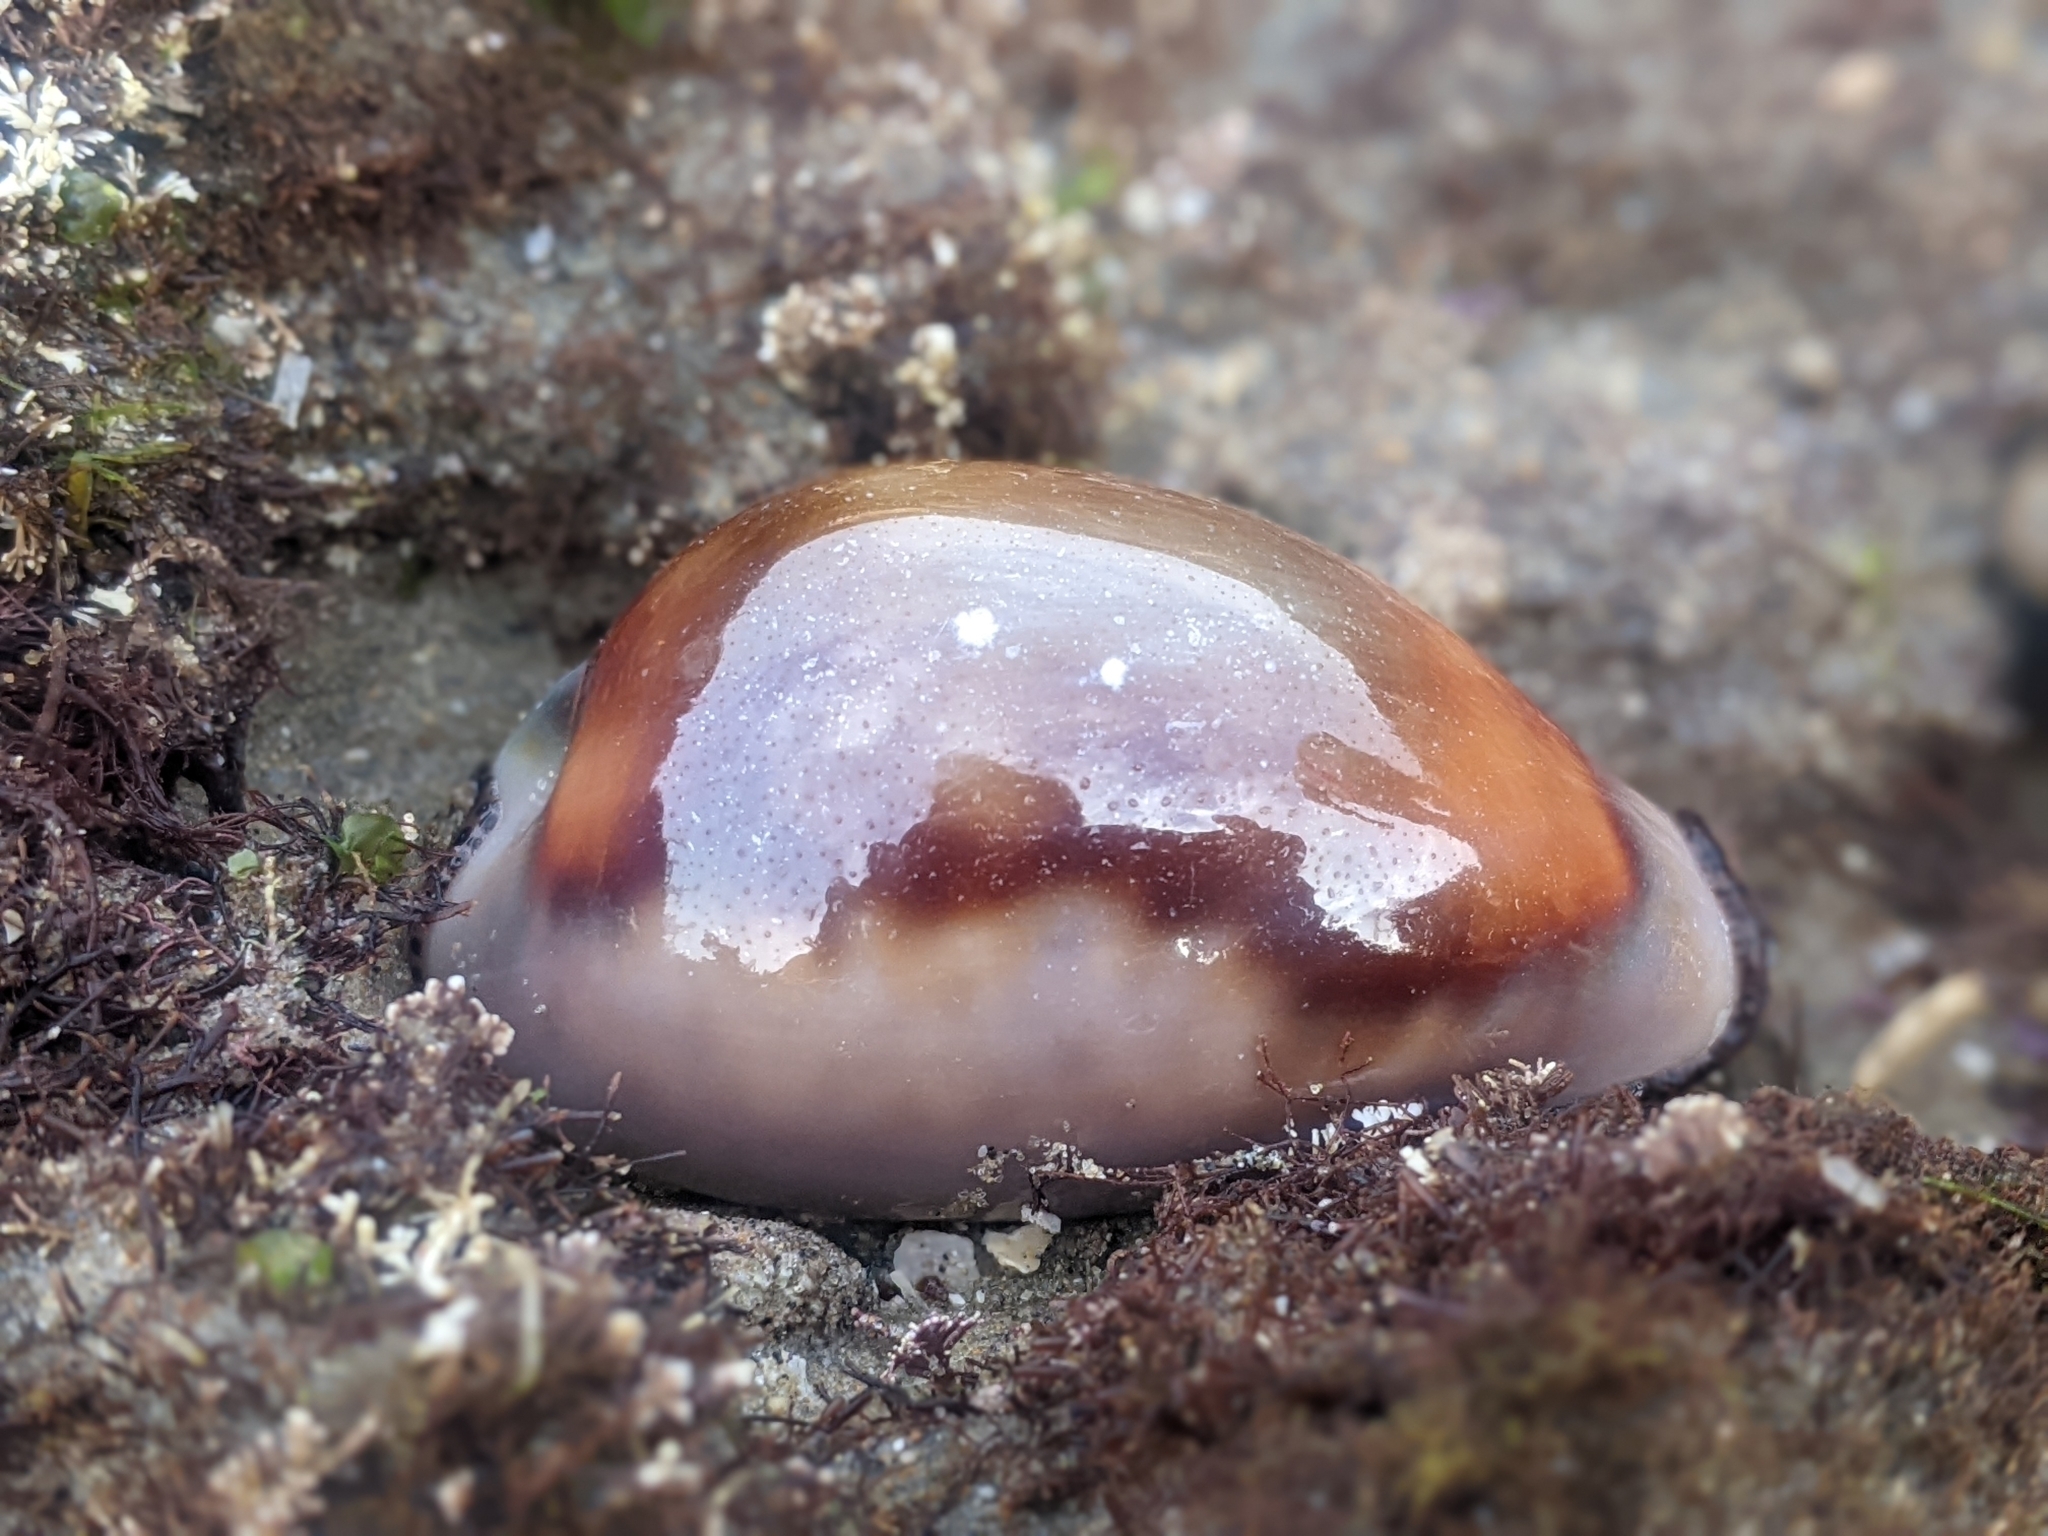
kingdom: Animalia
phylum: Mollusca
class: Gastropoda
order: Littorinimorpha
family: Cypraeidae
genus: Neobernaya
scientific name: Neobernaya spadicea
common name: Chestnut cowrie
